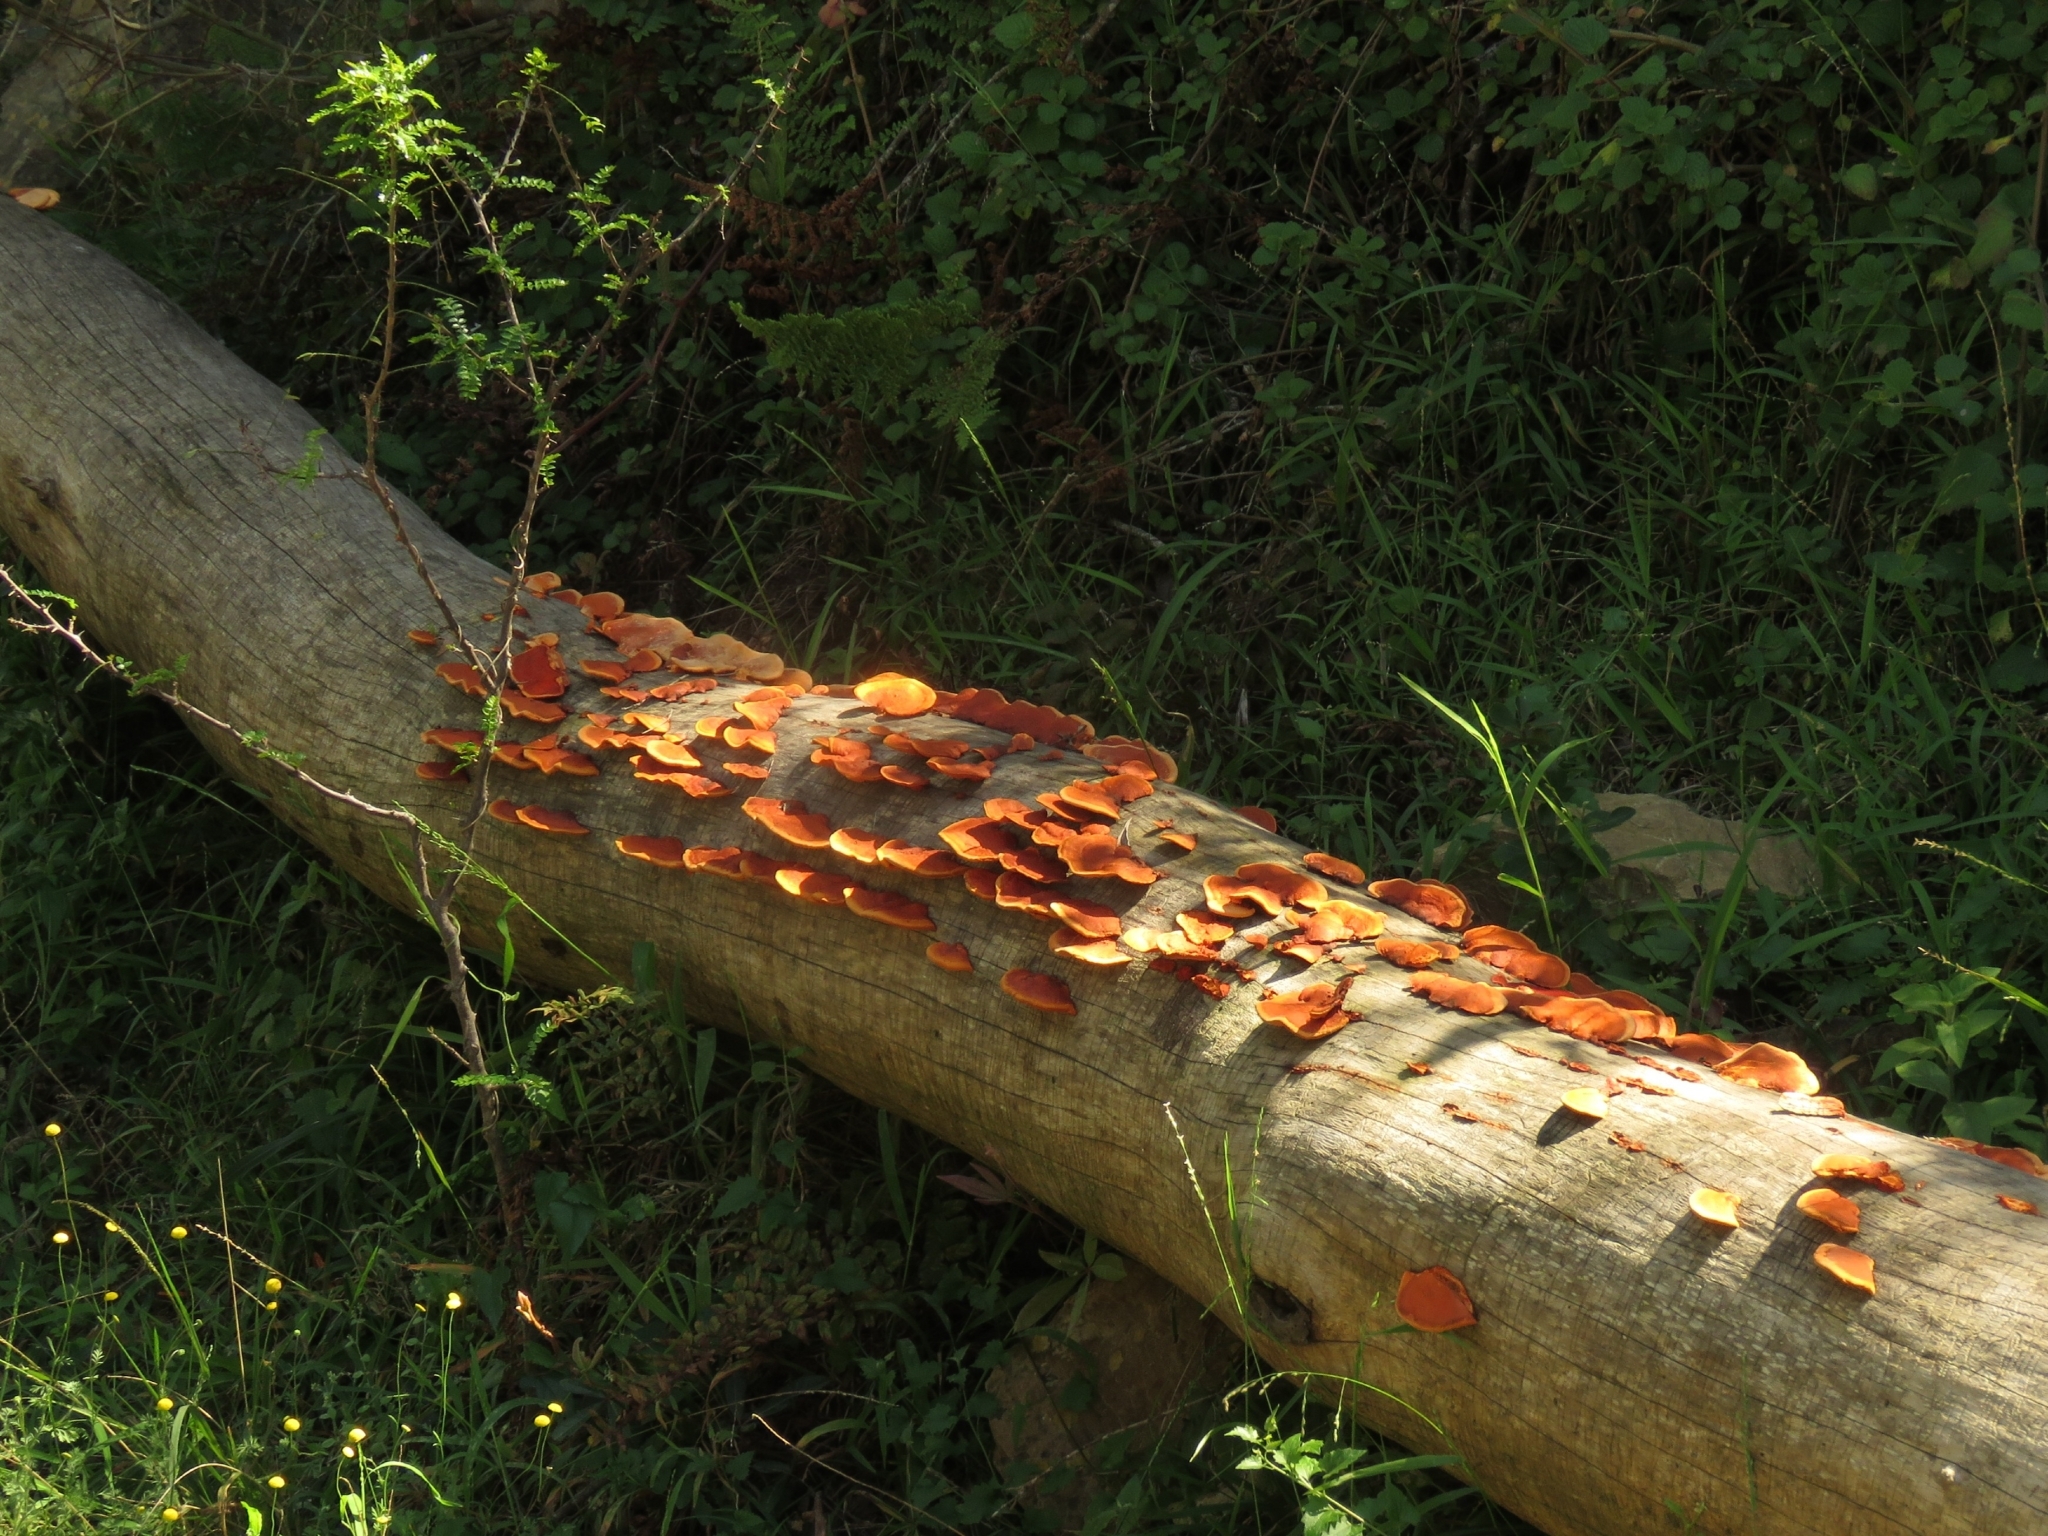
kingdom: Fungi
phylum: Basidiomycota
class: Agaricomycetes
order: Polyporales
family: Polyporaceae
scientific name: Polyporaceae
